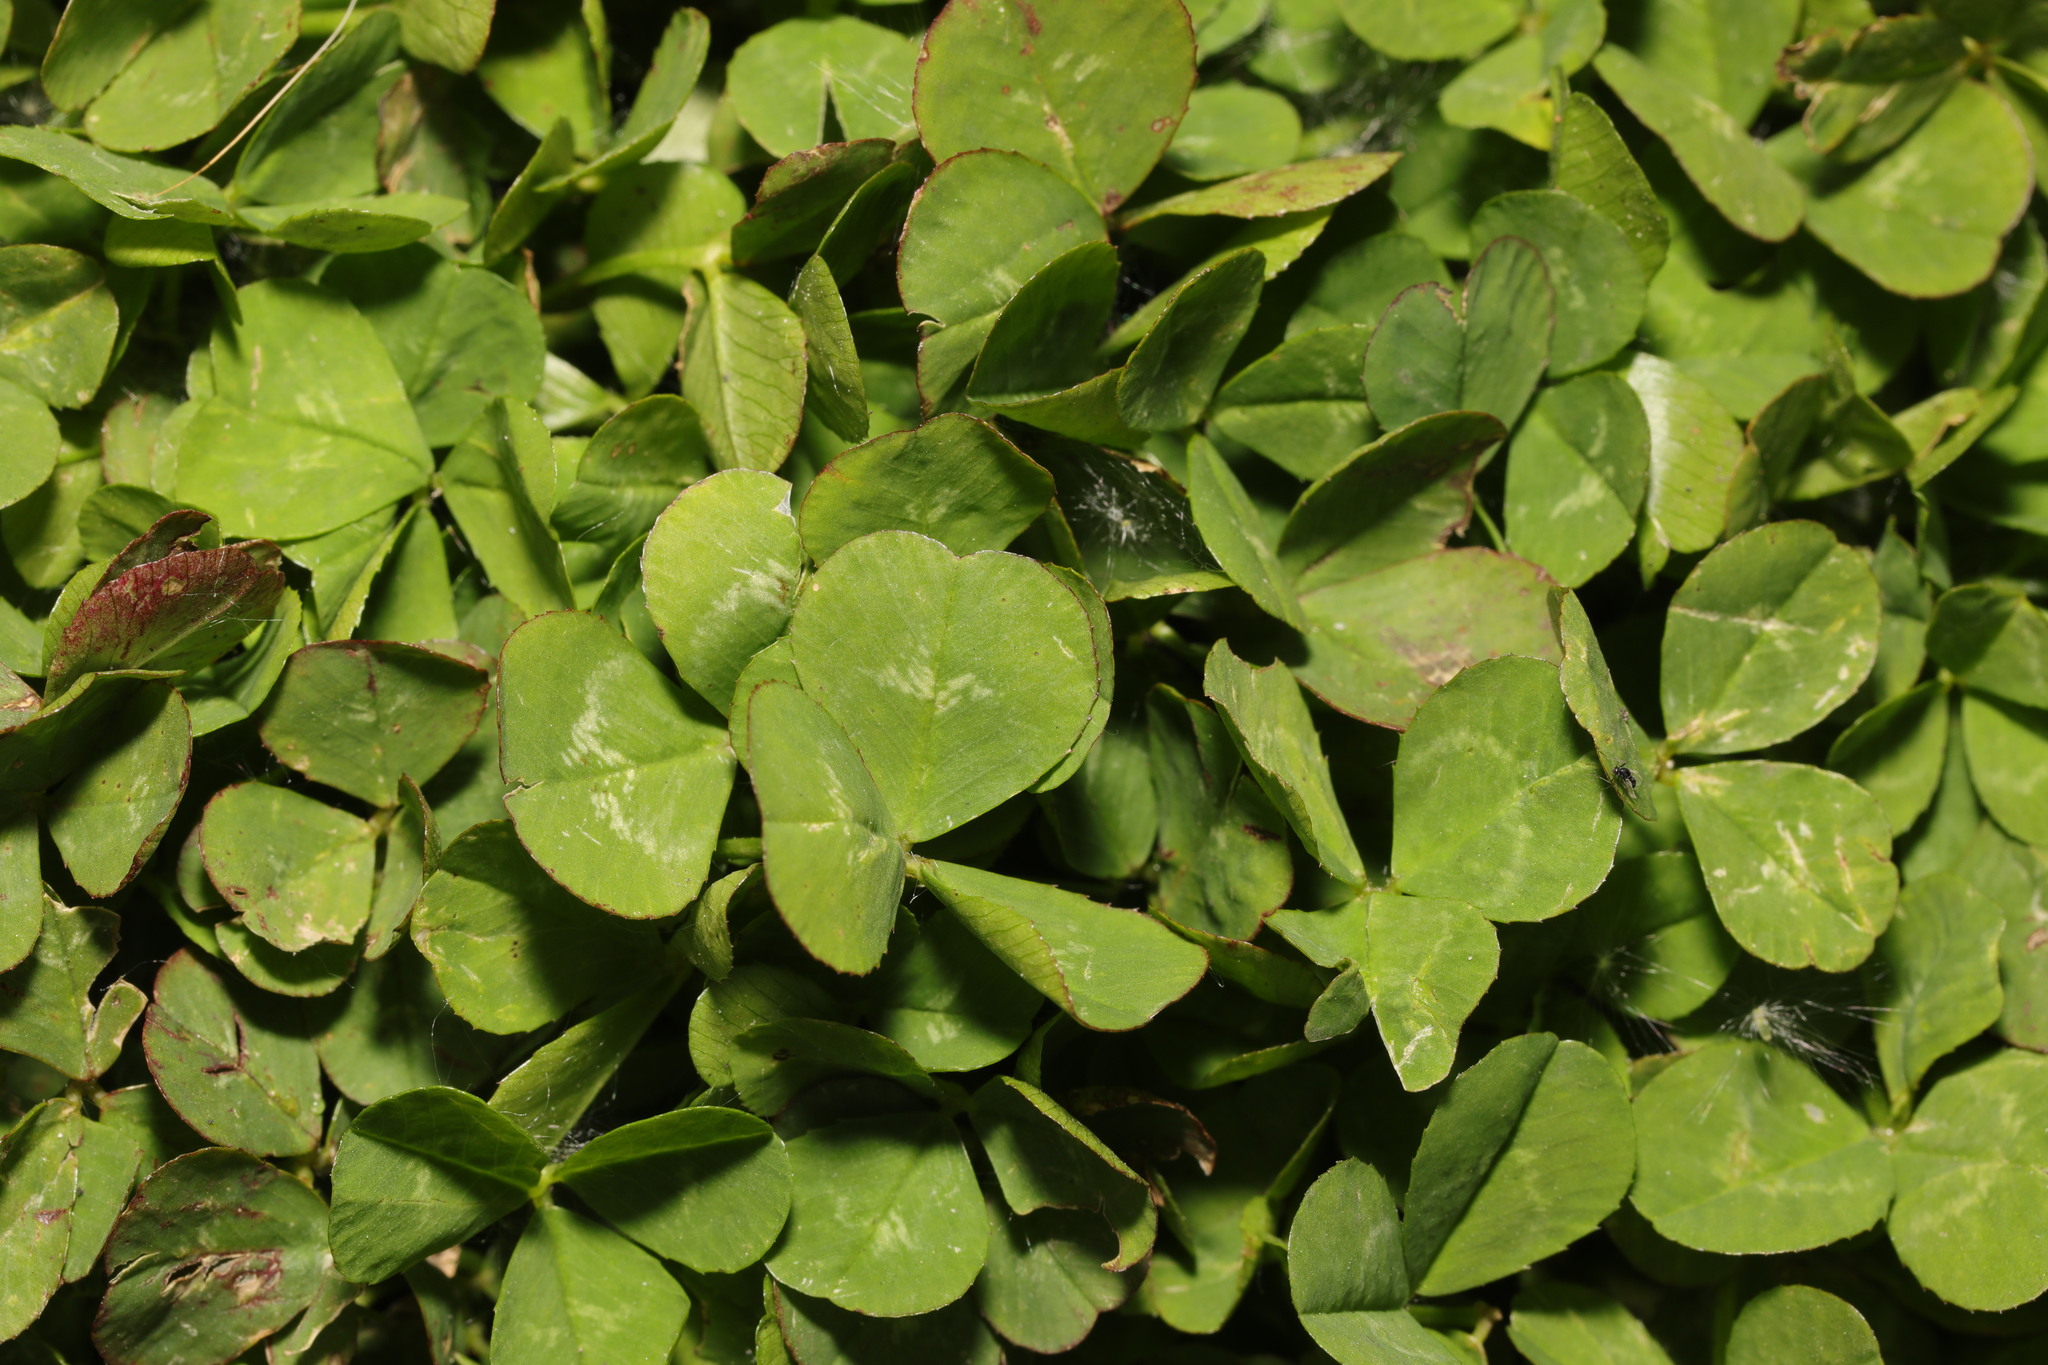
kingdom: Plantae
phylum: Tracheophyta
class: Magnoliopsida
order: Fabales
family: Fabaceae
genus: Trifolium
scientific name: Trifolium repens
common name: White clover
